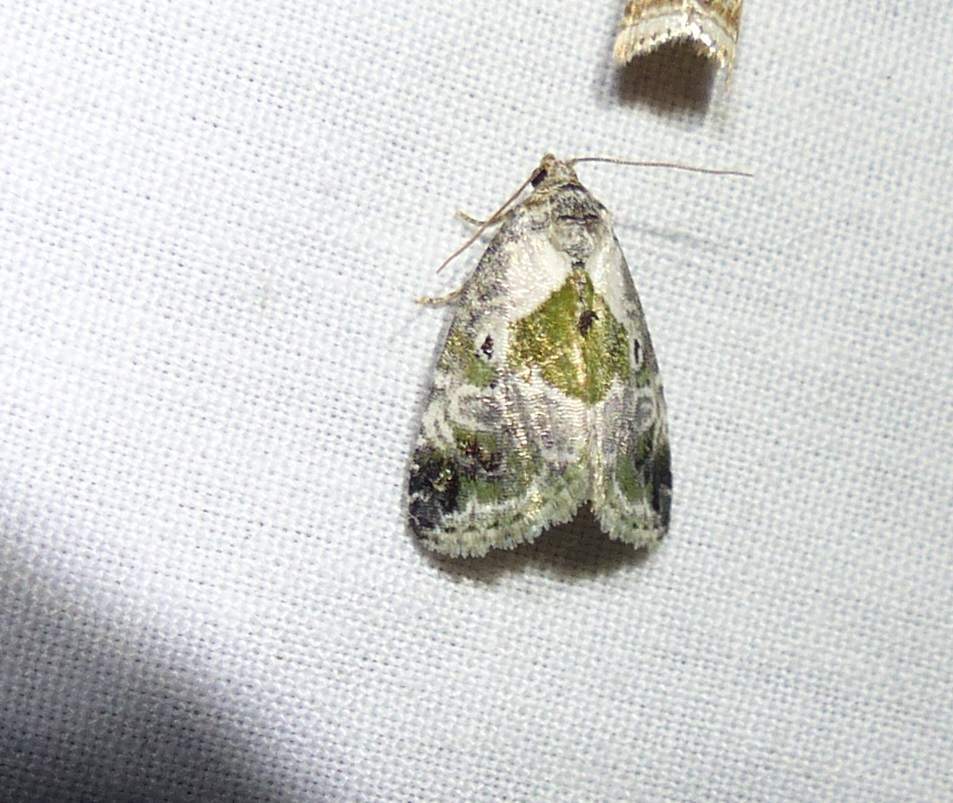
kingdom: Animalia
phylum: Arthropoda
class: Insecta
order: Lepidoptera
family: Noctuidae
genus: Maliattha
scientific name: Maliattha synochitis
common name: Black-dotted glyph
